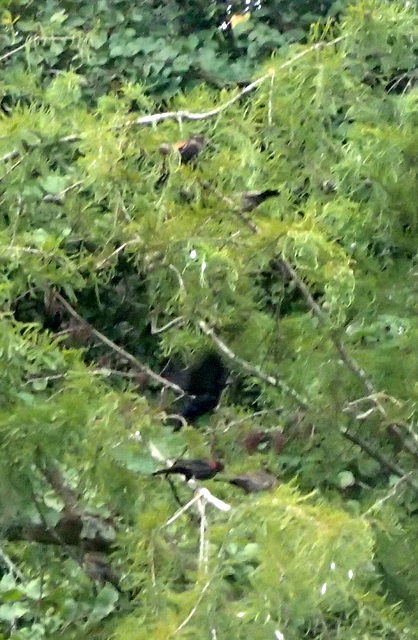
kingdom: Animalia
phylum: Chordata
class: Aves
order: Passeriformes
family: Icteridae
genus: Molothrus
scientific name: Molothrus ater
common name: Brown-headed cowbird
